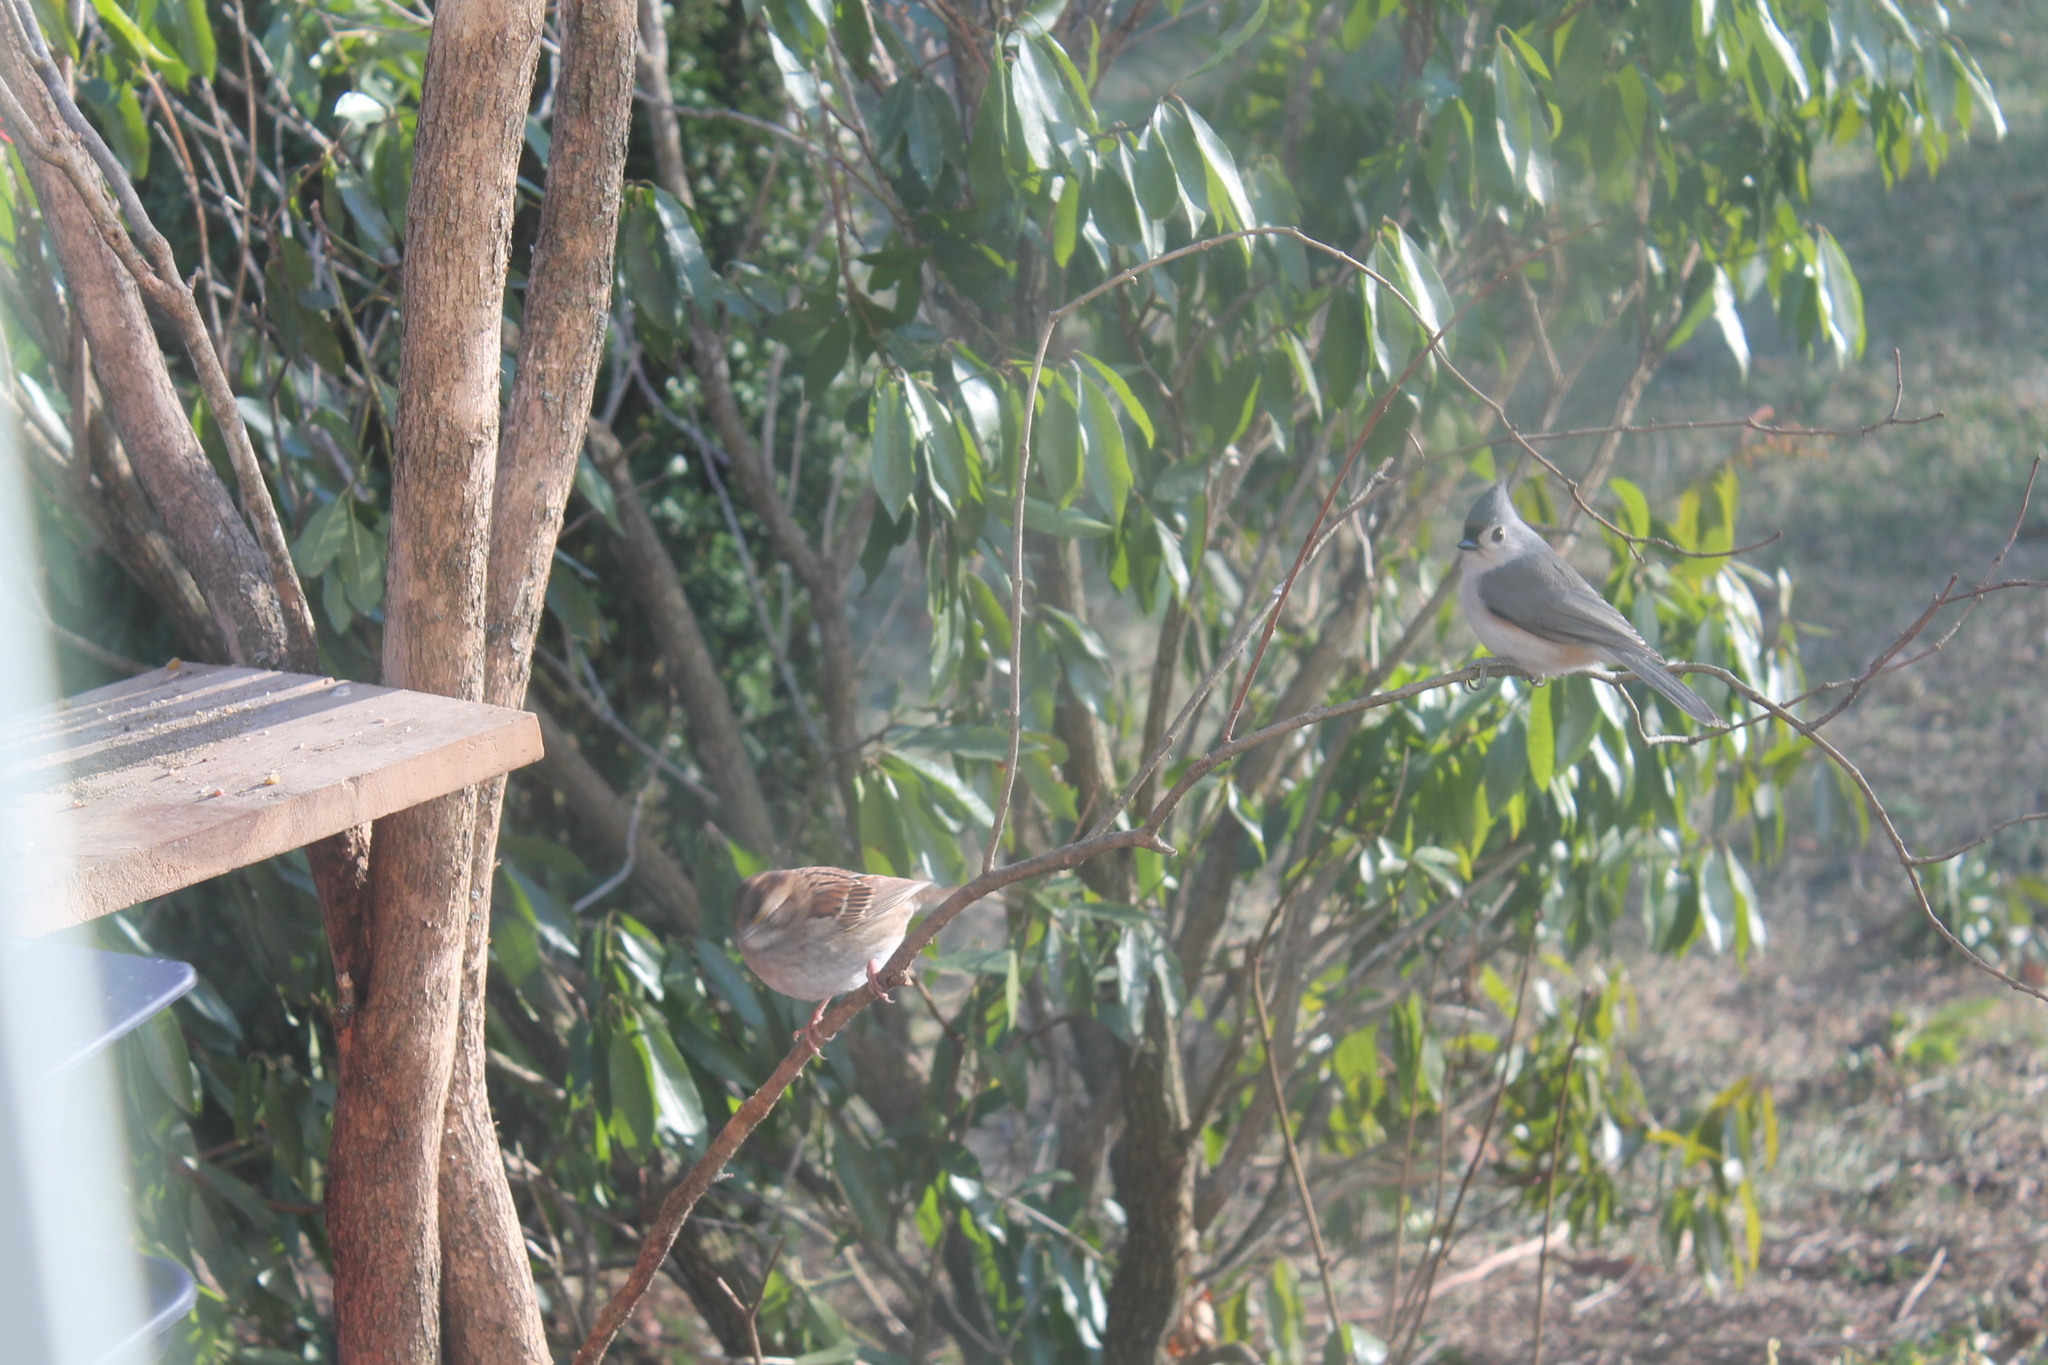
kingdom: Animalia
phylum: Chordata
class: Aves
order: Passeriformes
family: Paridae
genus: Baeolophus
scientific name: Baeolophus bicolor
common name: Tufted titmouse
